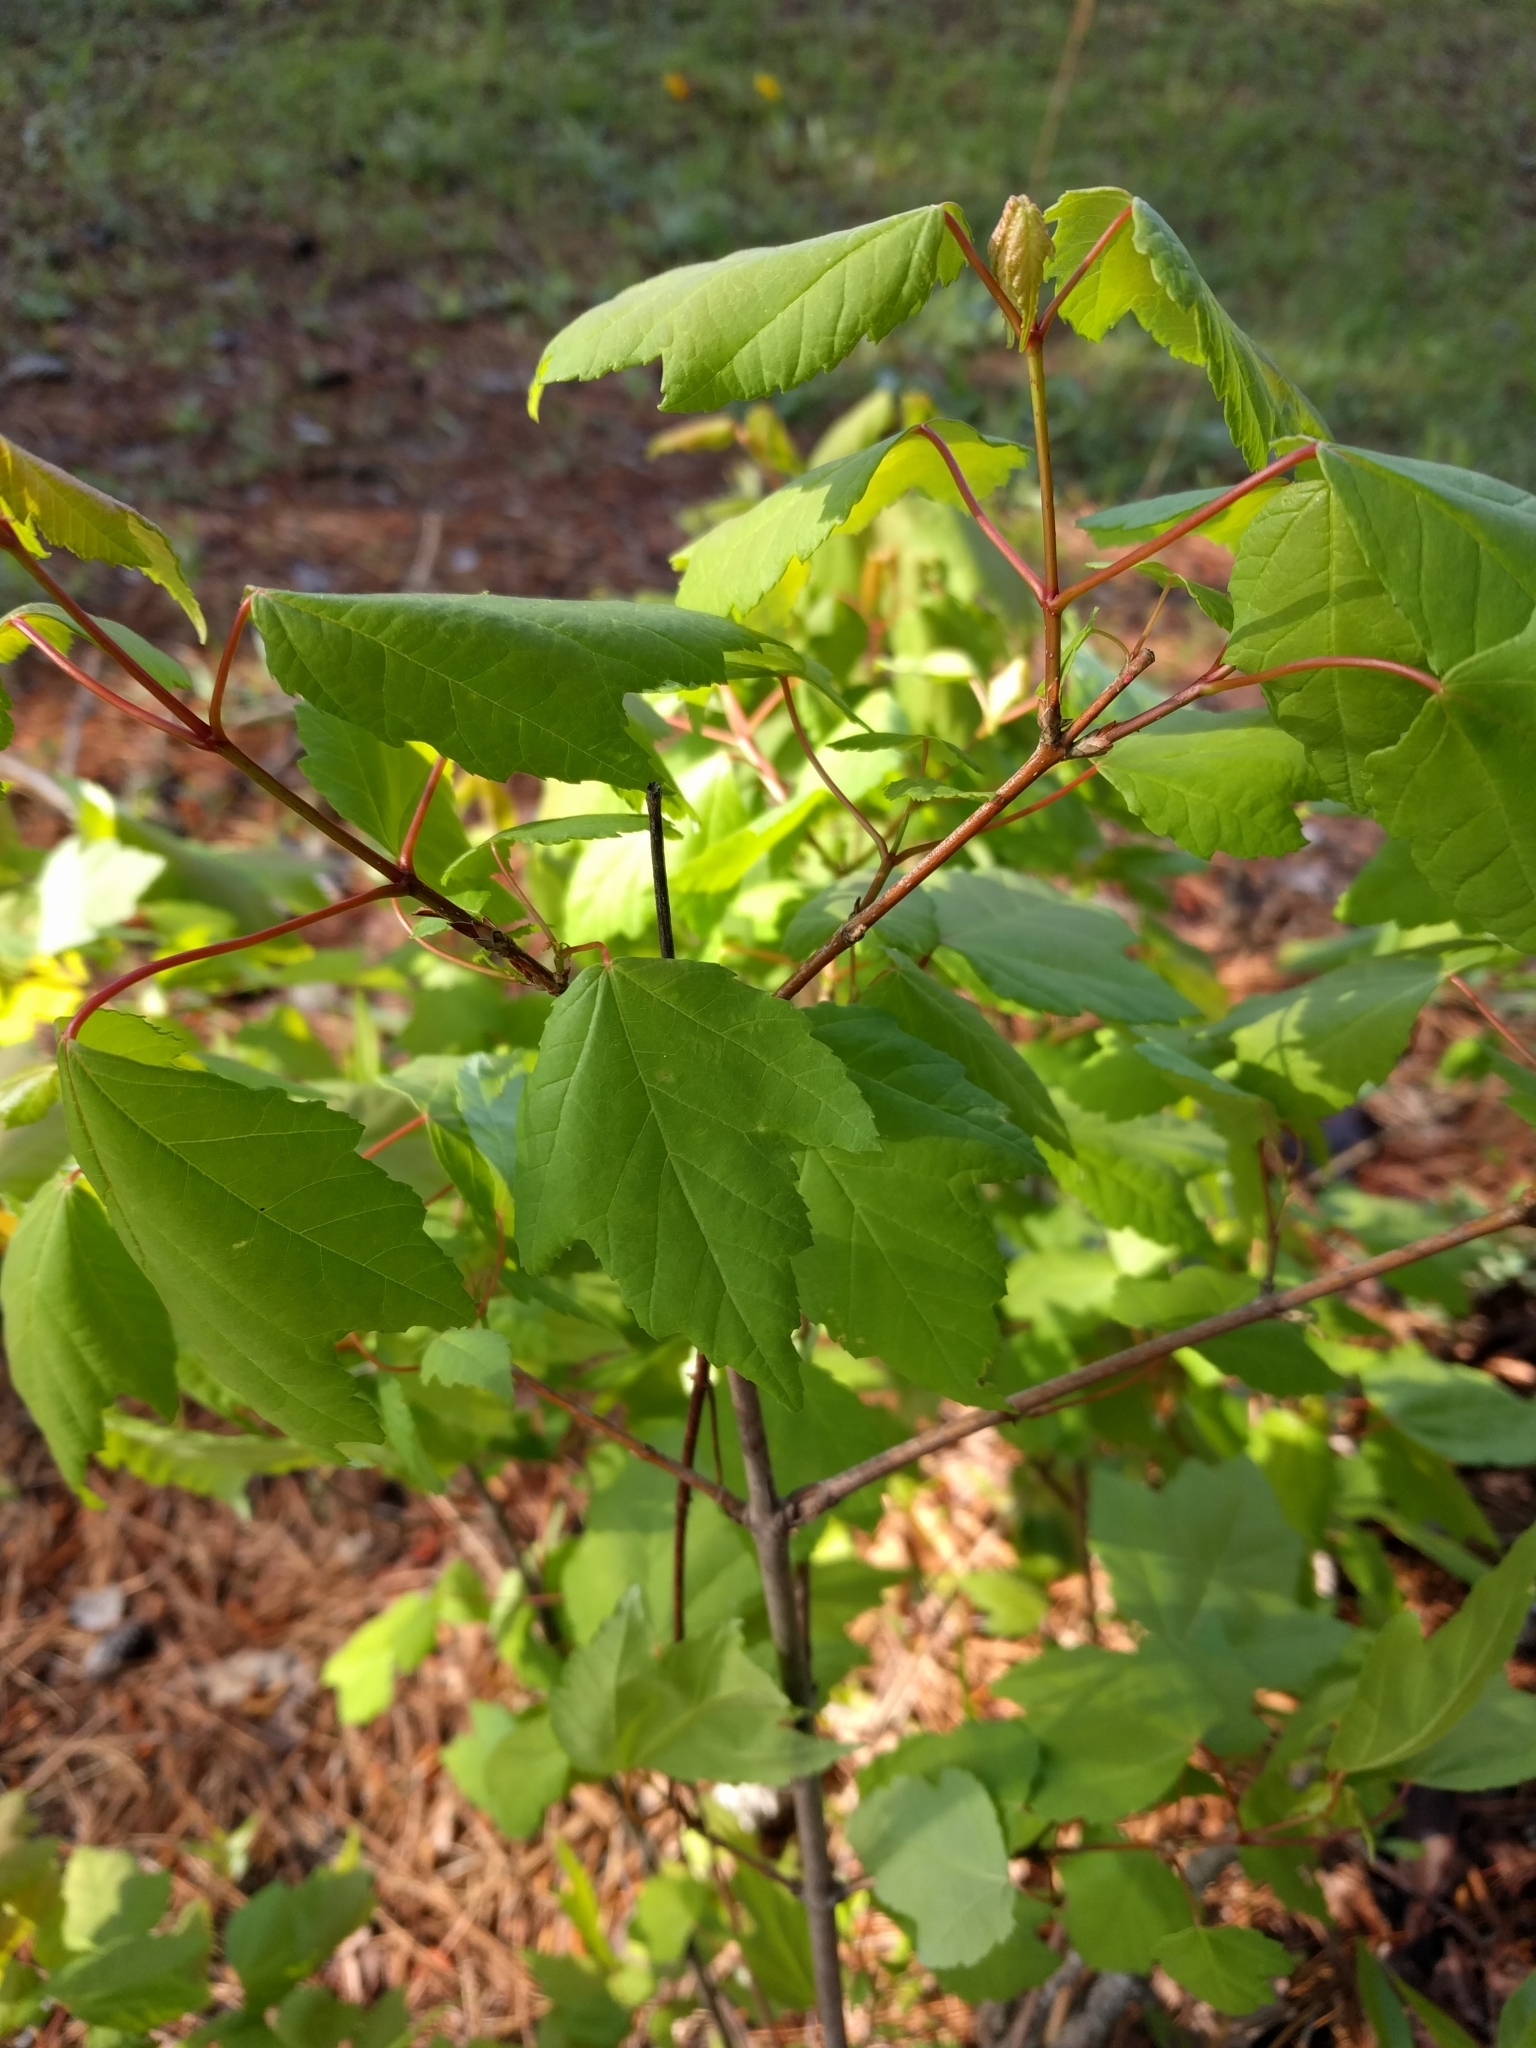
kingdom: Plantae
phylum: Tracheophyta
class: Magnoliopsida
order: Sapindales
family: Sapindaceae
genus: Acer
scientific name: Acer rubrum
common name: Red maple
